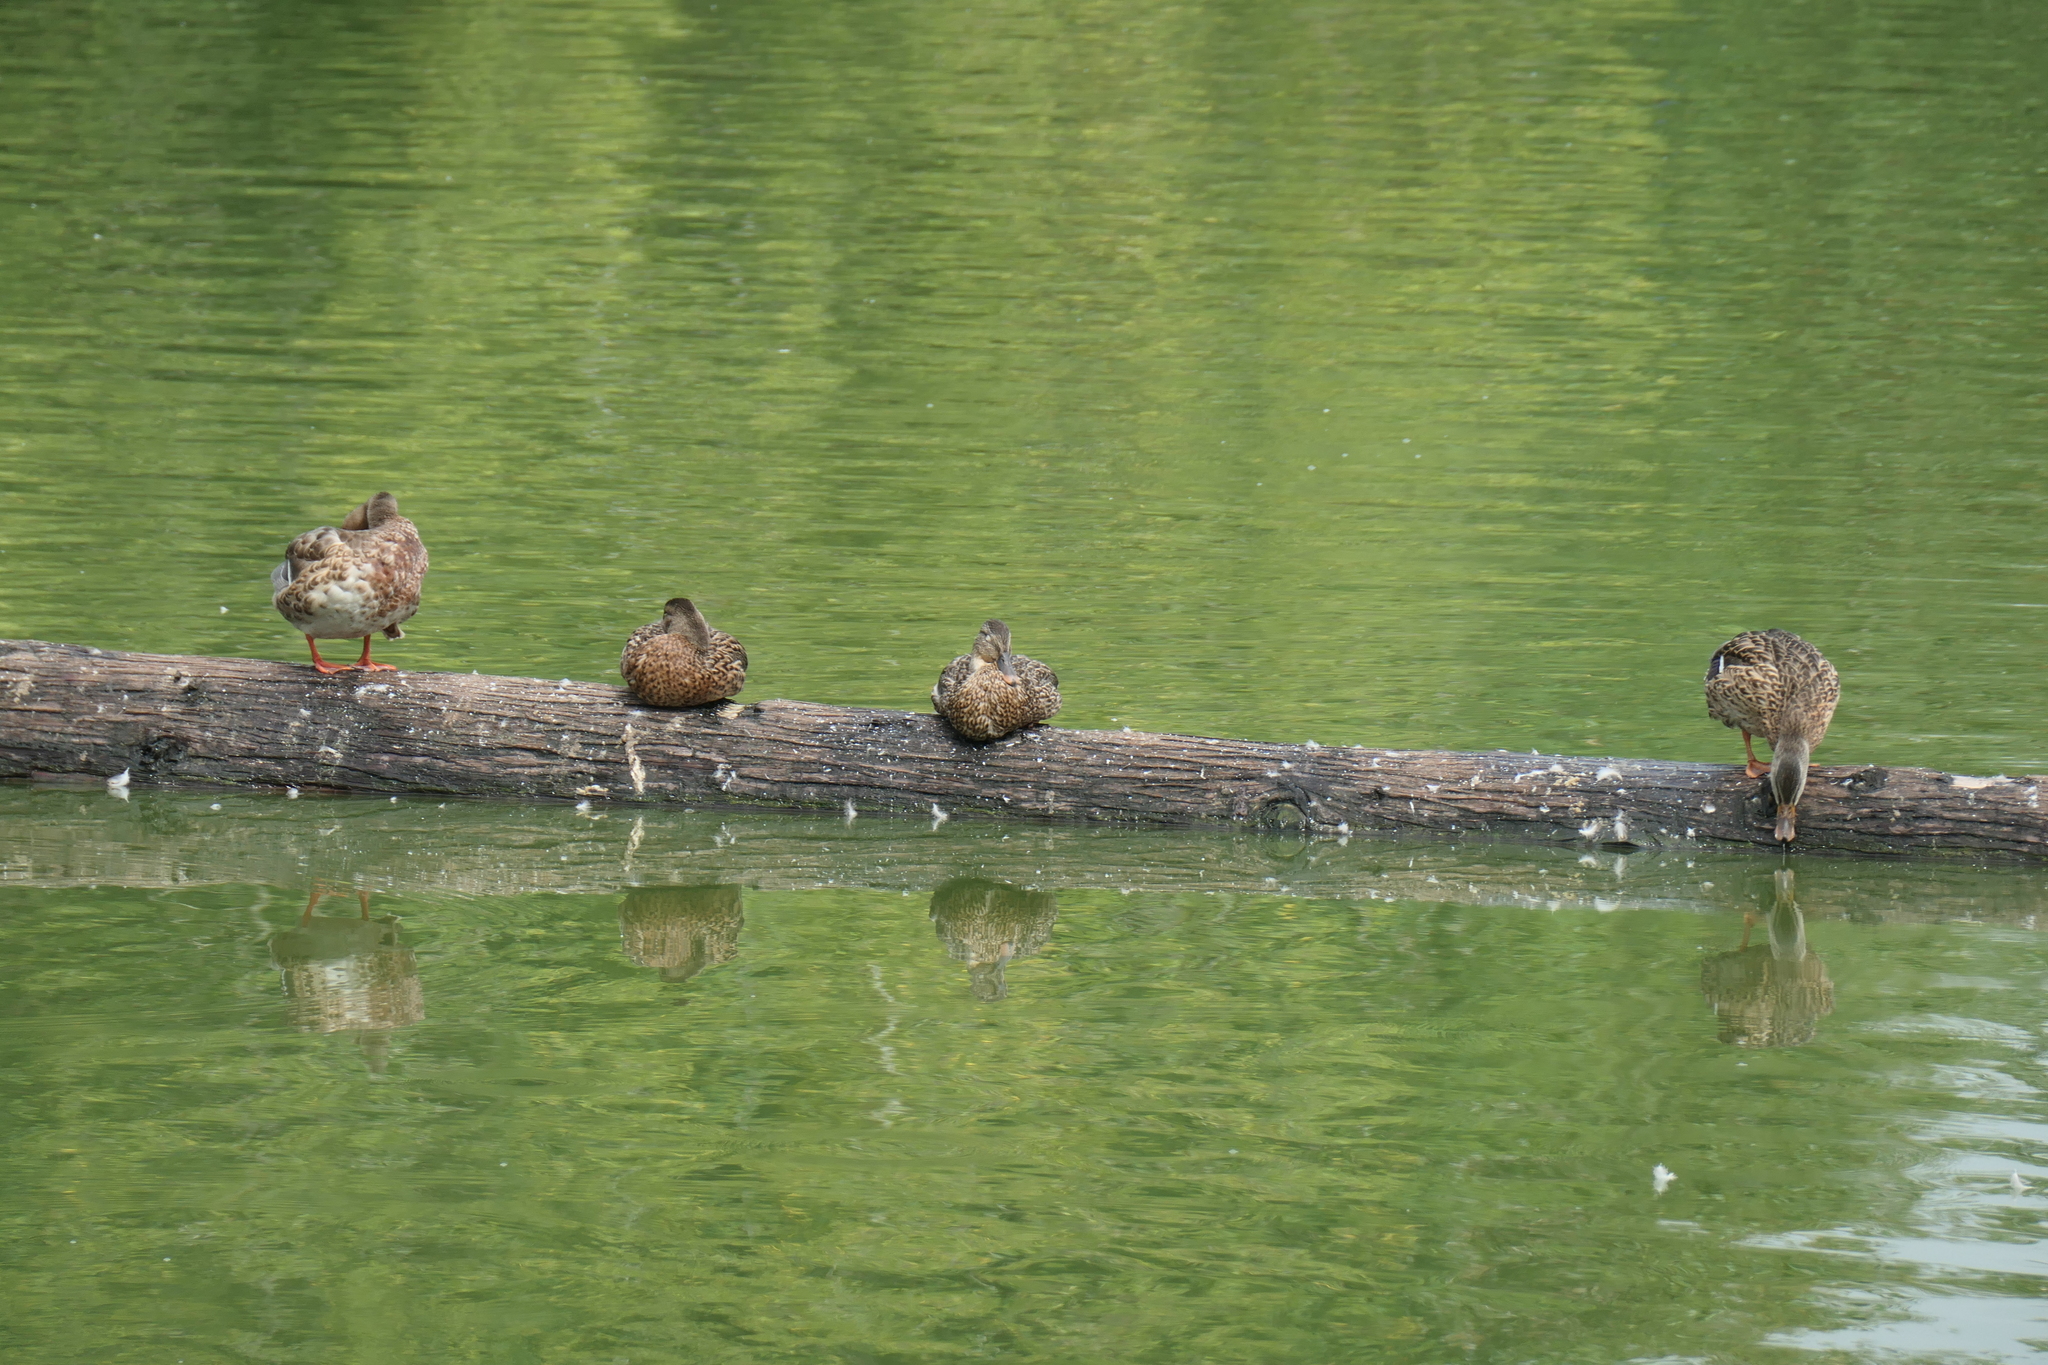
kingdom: Animalia
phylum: Chordata
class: Aves
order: Anseriformes
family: Anatidae
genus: Anas
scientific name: Anas platyrhynchos
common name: Mallard
